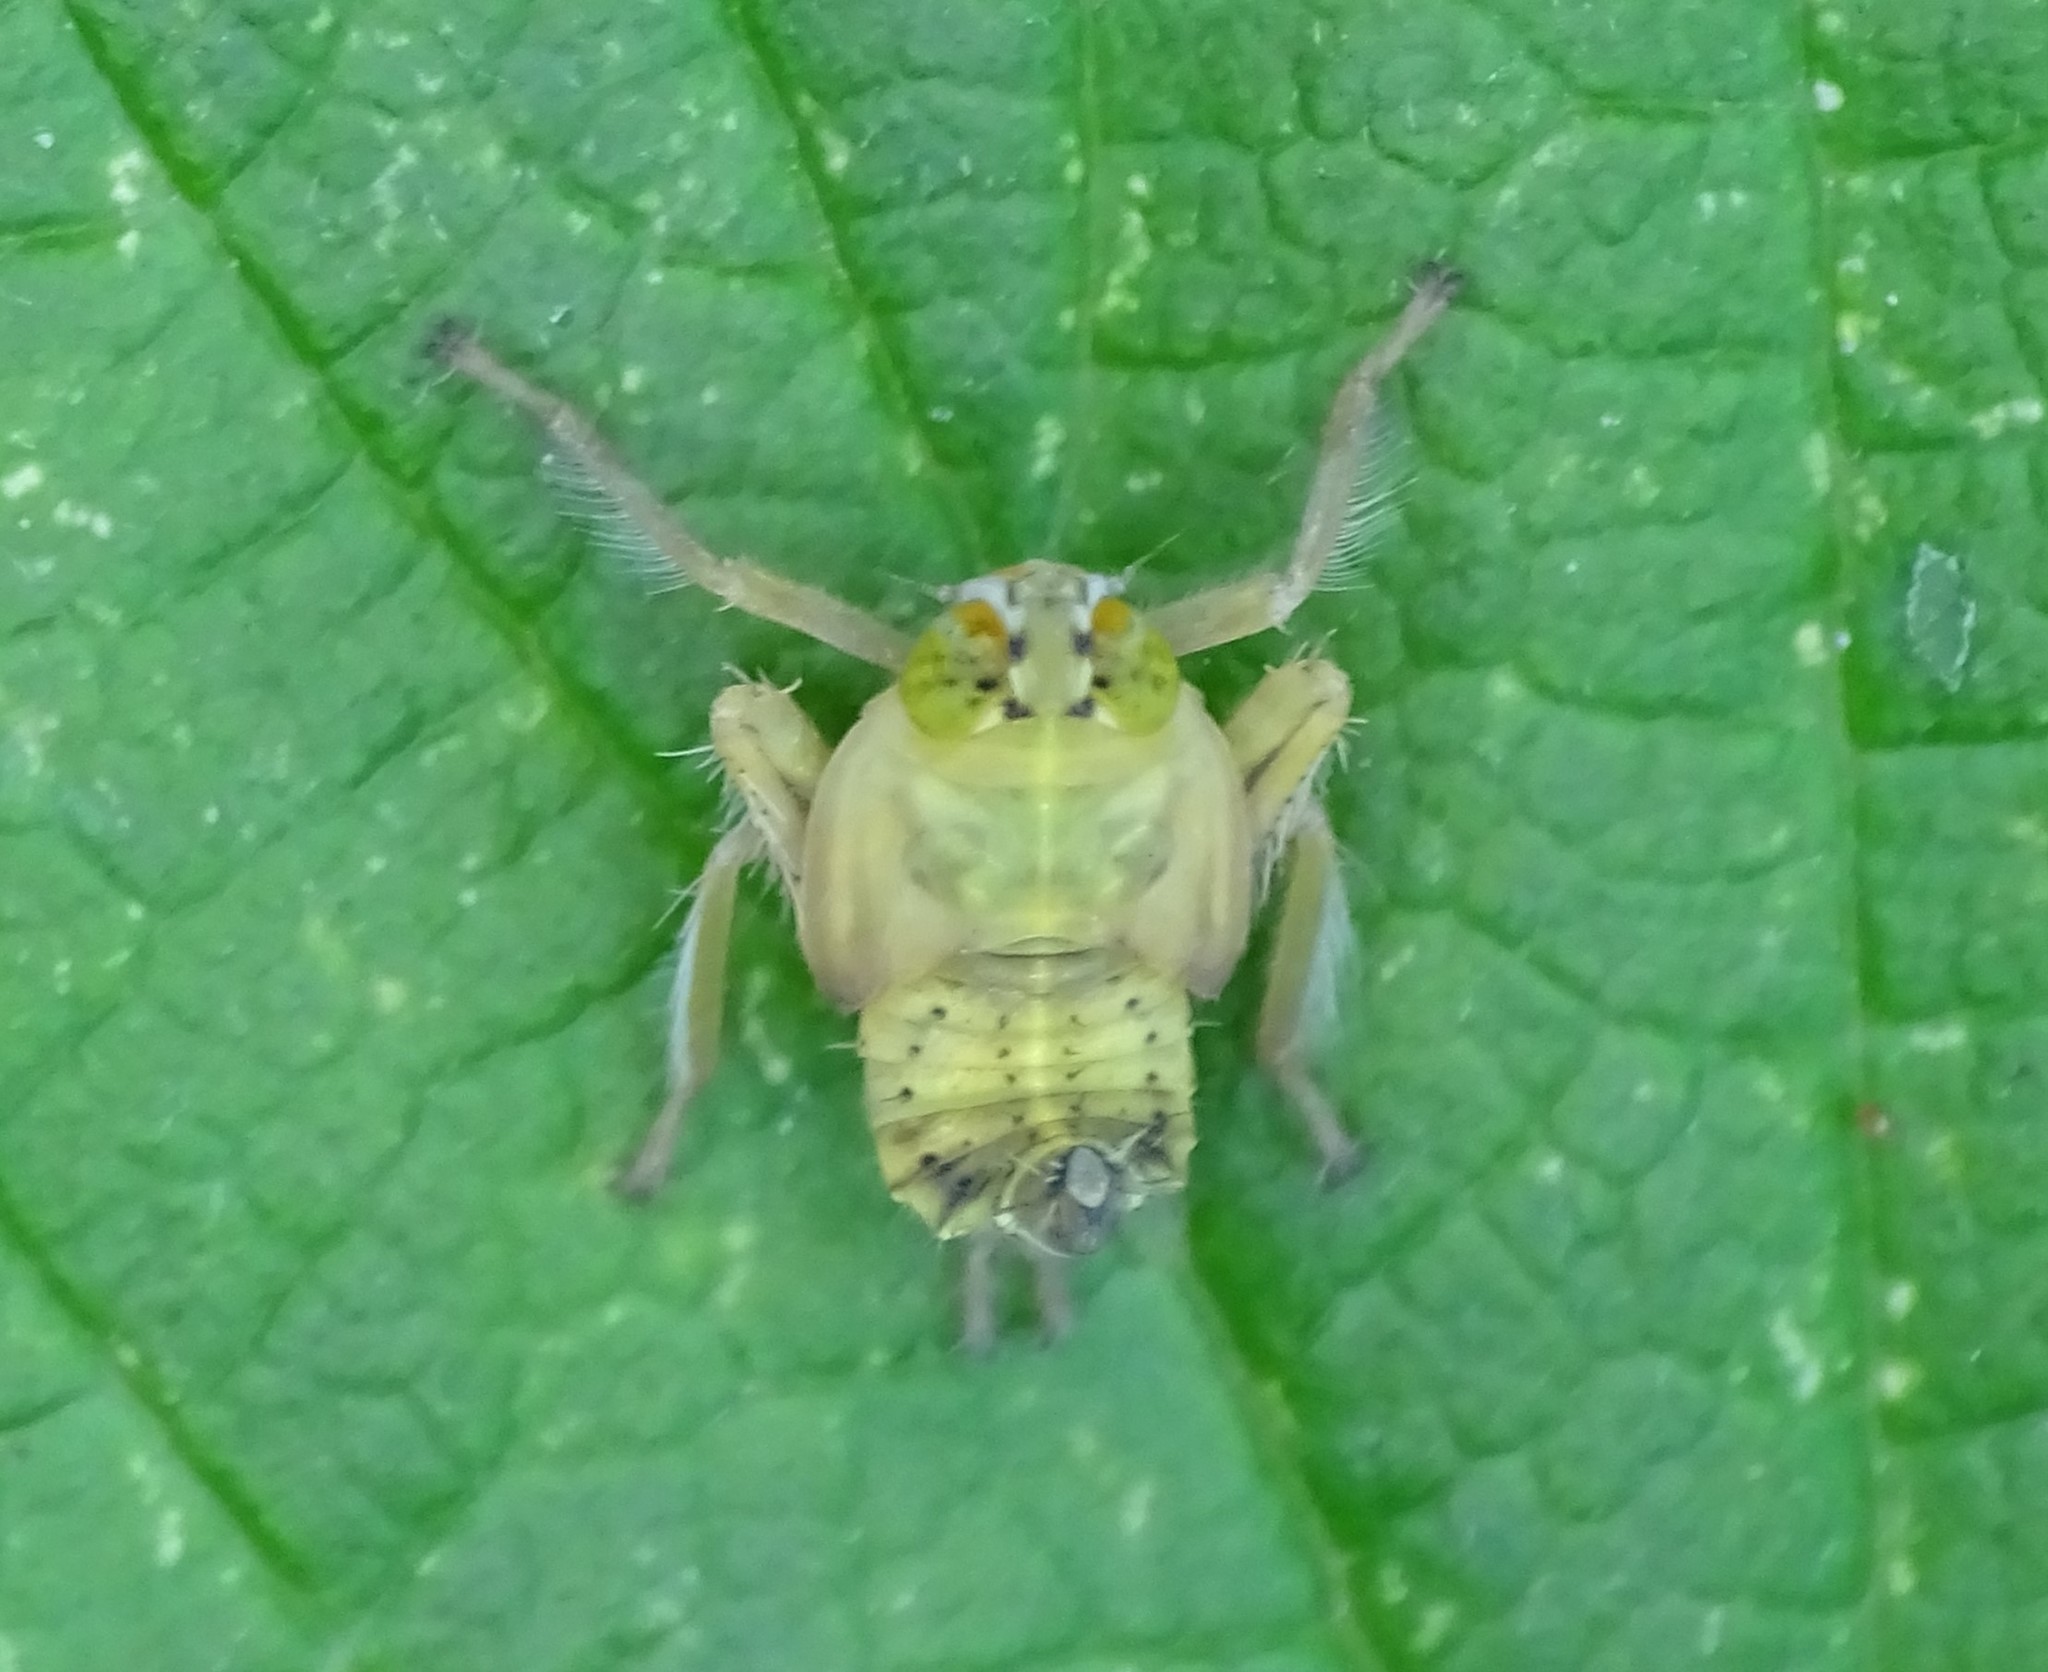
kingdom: Animalia
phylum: Arthropoda
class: Insecta
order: Hemiptera
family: Cicadellidae
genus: Jikradia
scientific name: Jikradia olitoria
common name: Coppery leafhopper
